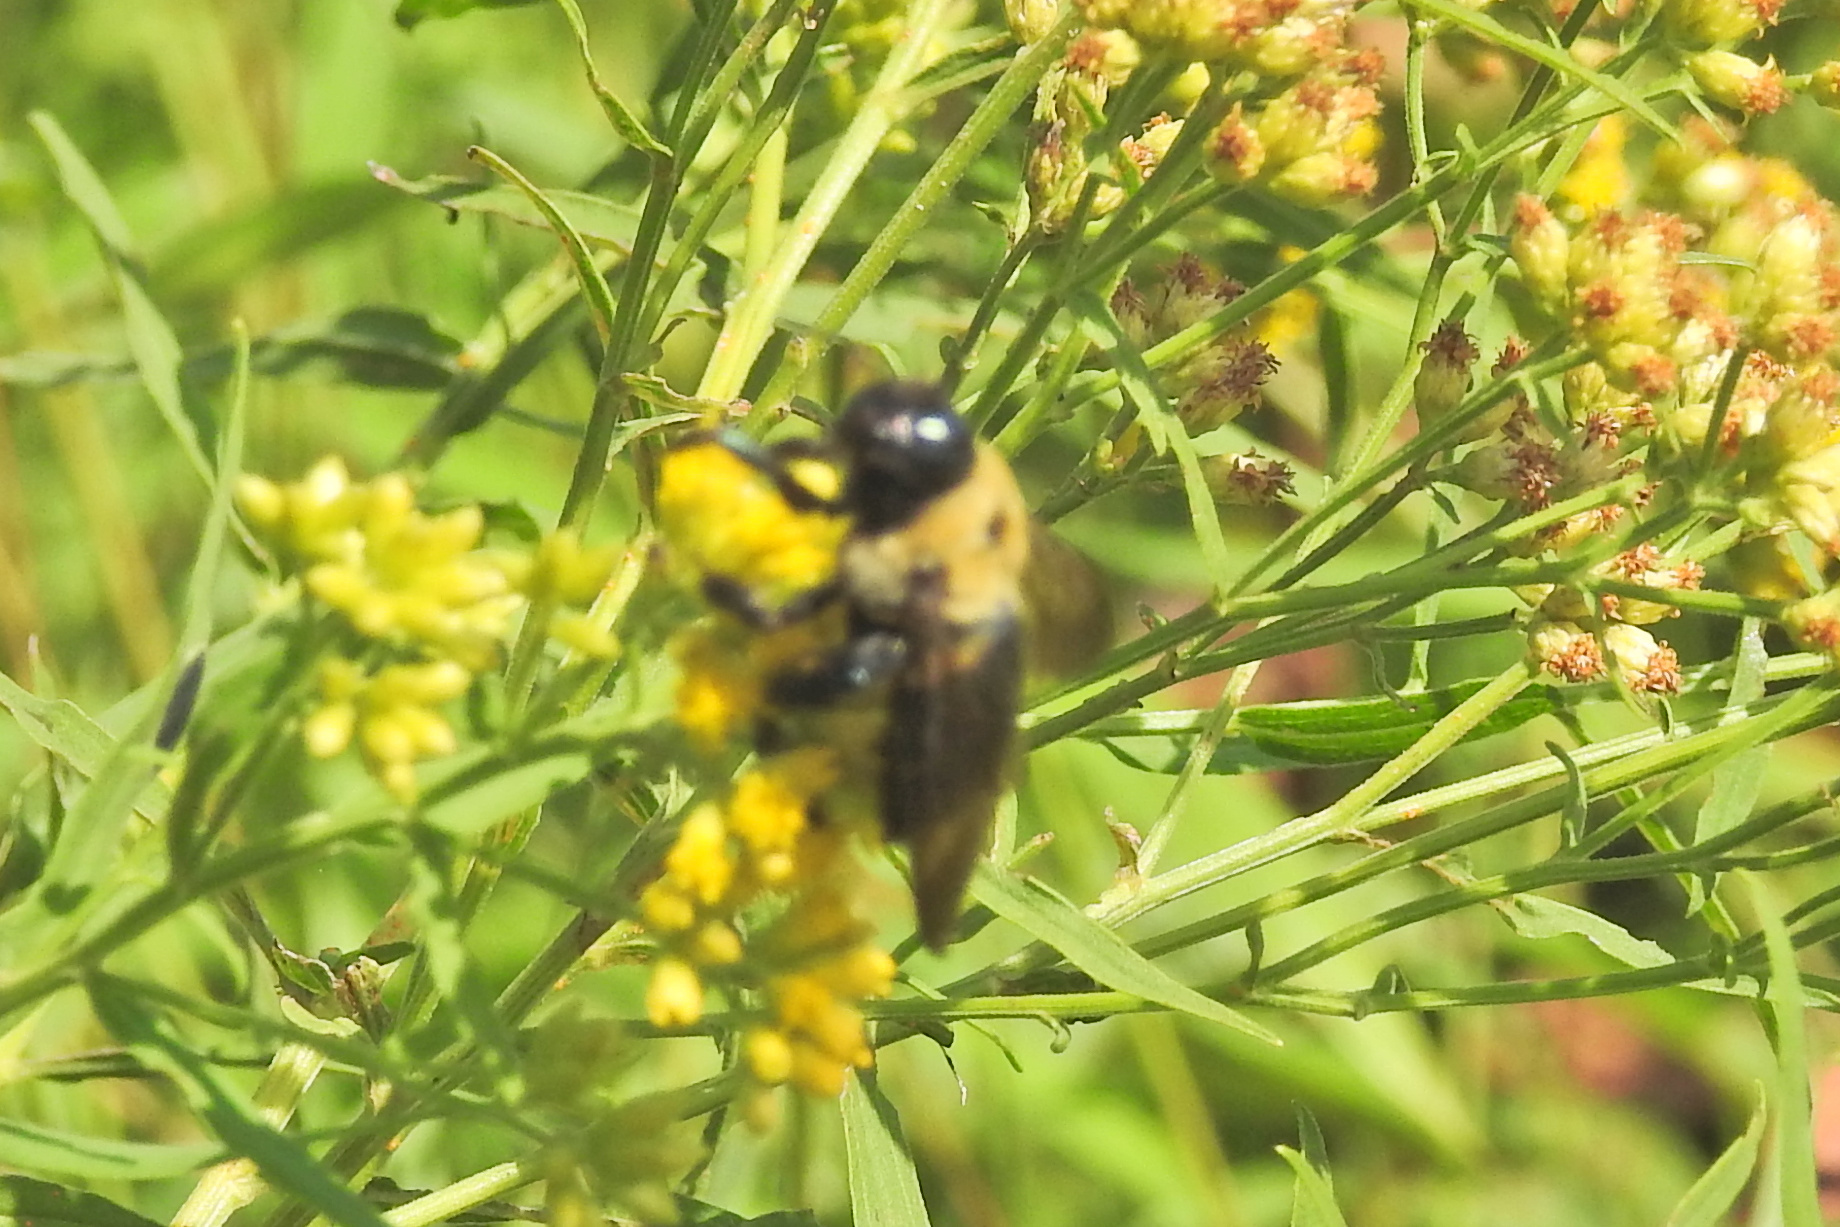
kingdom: Animalia
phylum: Arthropoda
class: Insecta
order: Hymenoptera
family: Apidae
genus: Xylocopa
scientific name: Xylocopa virginica
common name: Carpenter bee
